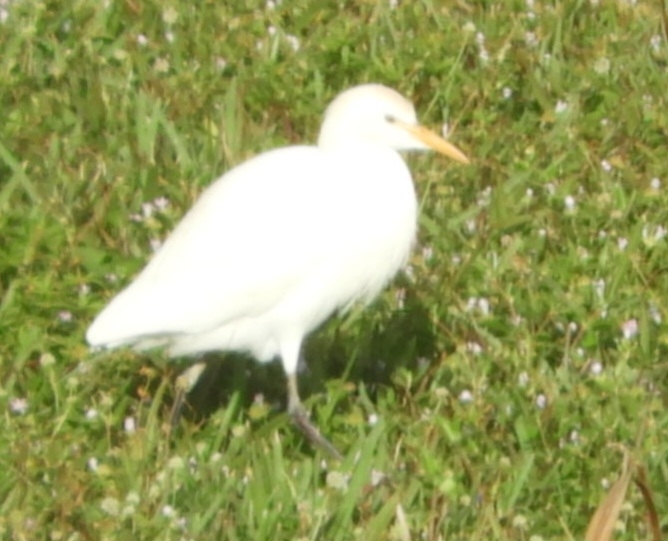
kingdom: Animalia
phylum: Chordata
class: Aves
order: Pelecaniformes
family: Ardeidae
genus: Bubulcus
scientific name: Bubulcus ibis
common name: Cattle egret
